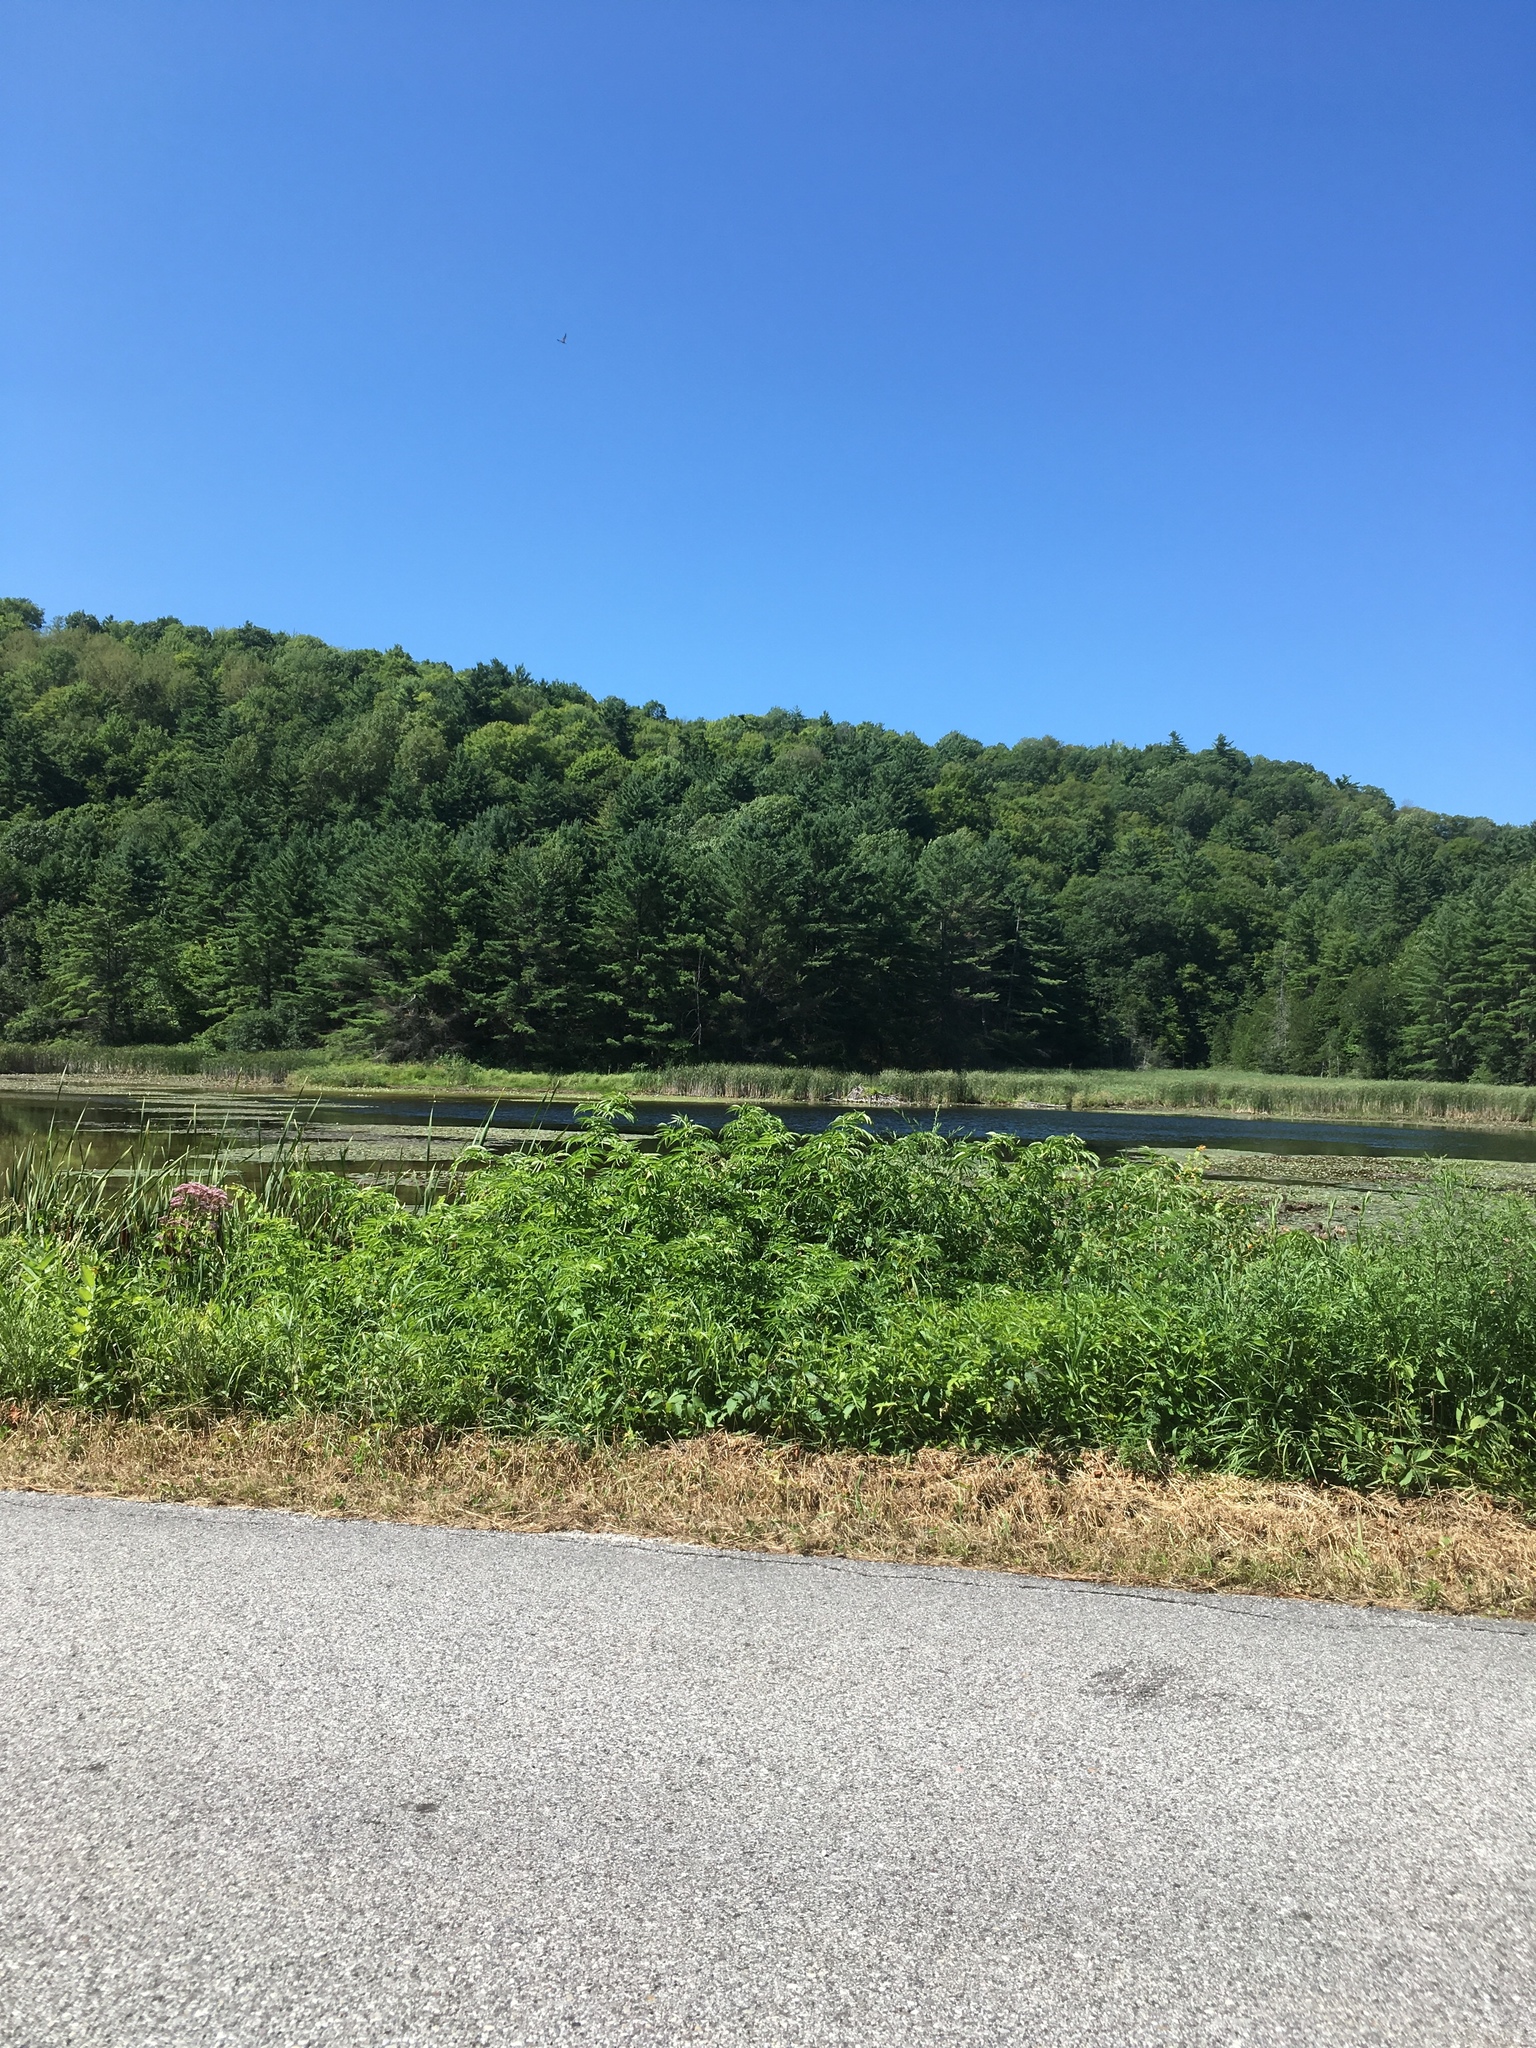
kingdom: Plantae
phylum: Tracheophyta
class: Pinopsida
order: Pinales
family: Pinaceae
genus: Pinus
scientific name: Pinus strobus
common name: Weymouth pine
